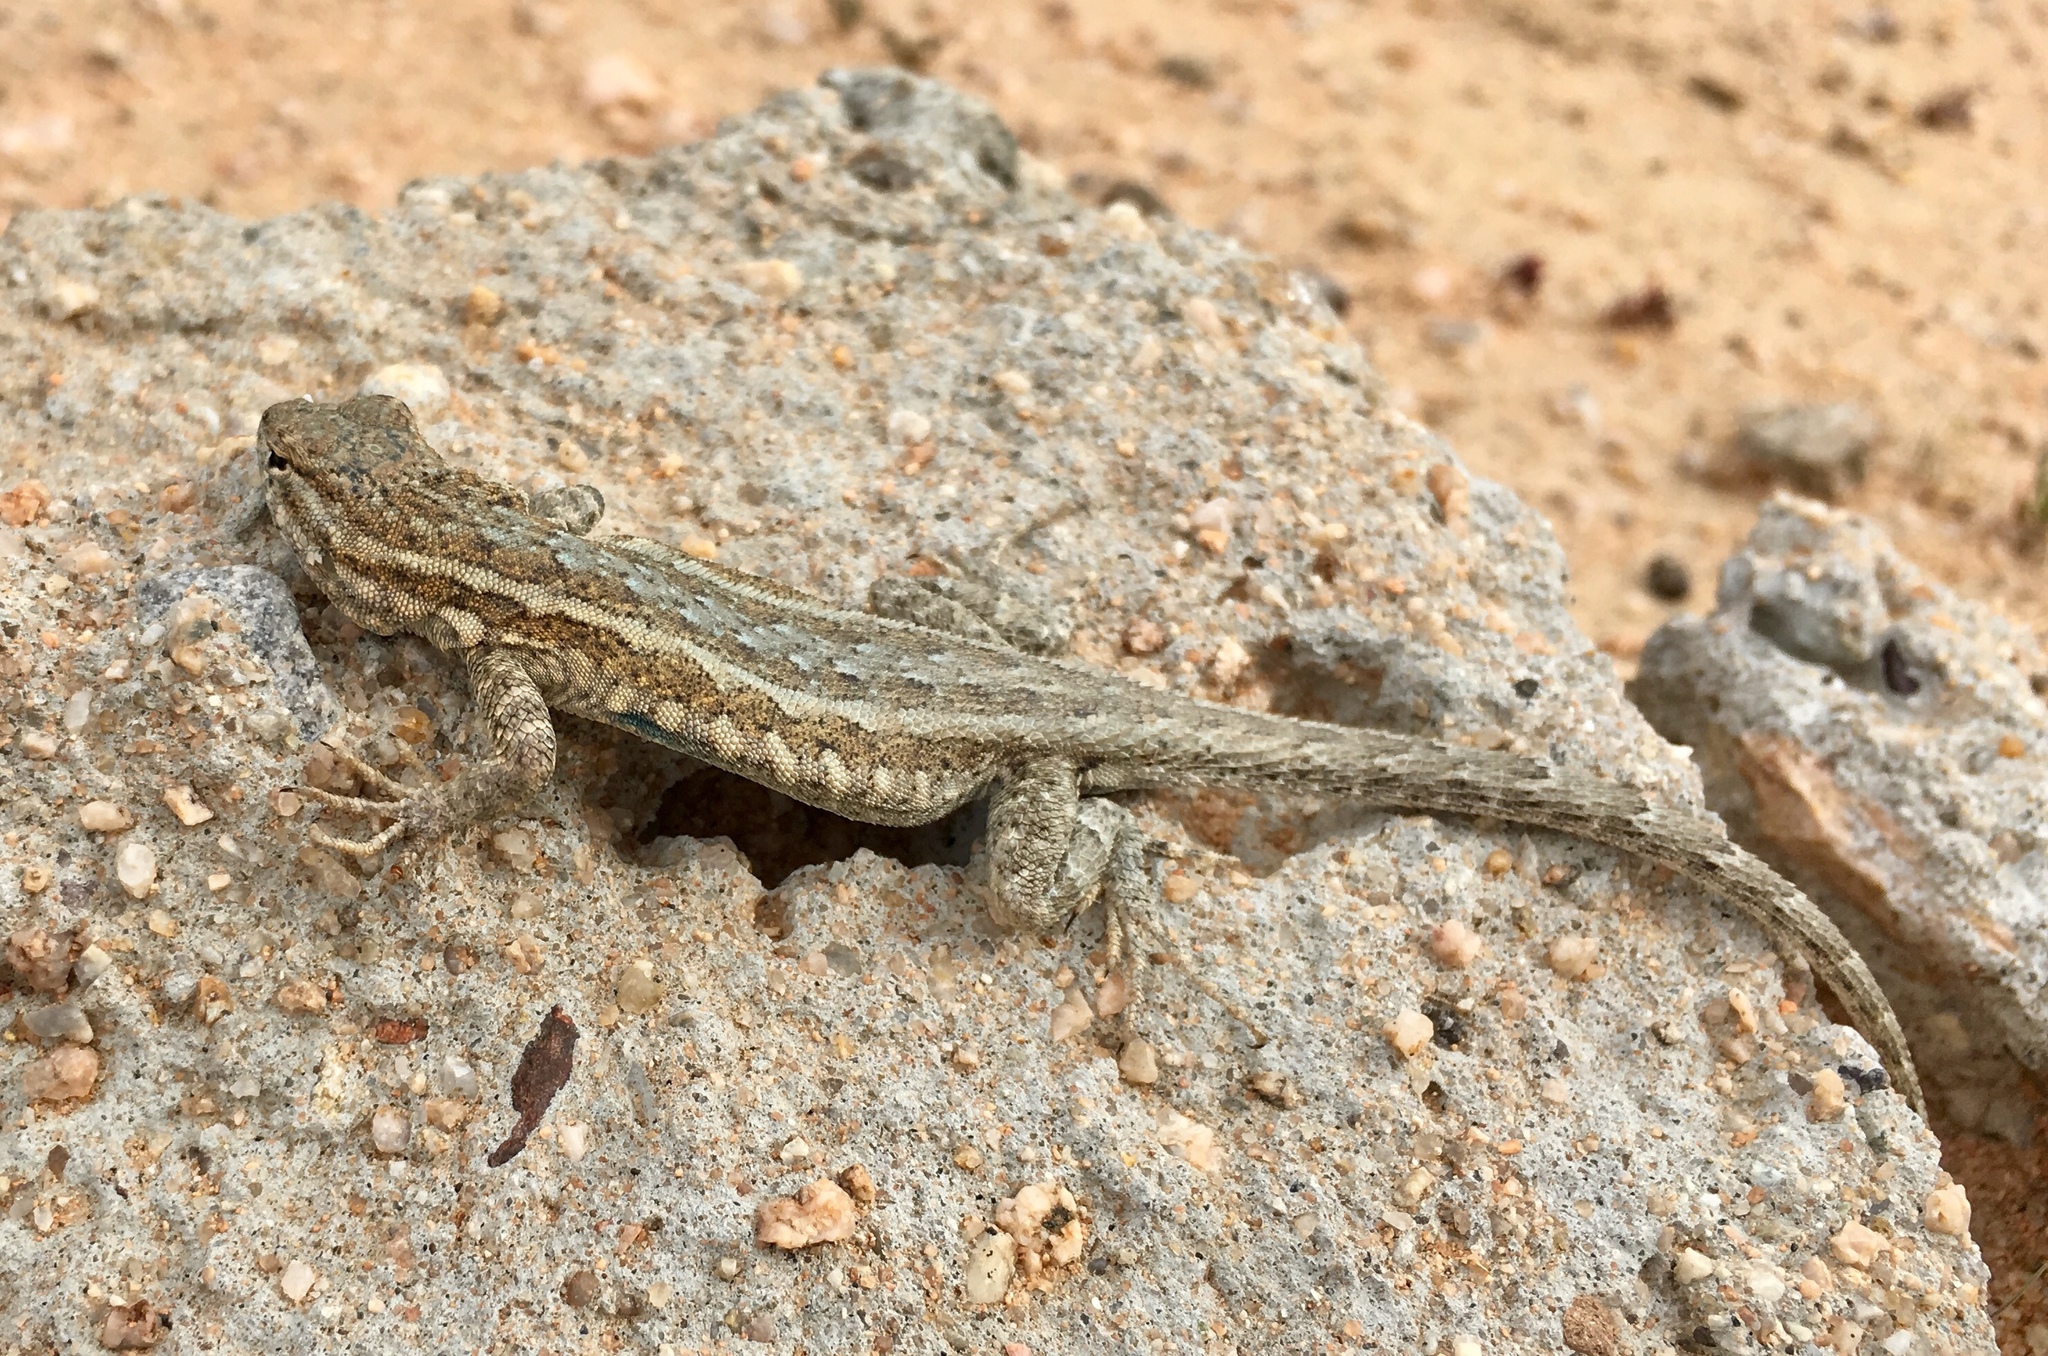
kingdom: Animalia
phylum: Chordata
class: Squamata
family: Phrynosomatidae
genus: Uta
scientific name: Uta stansburiana
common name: Side-blotched lizard
